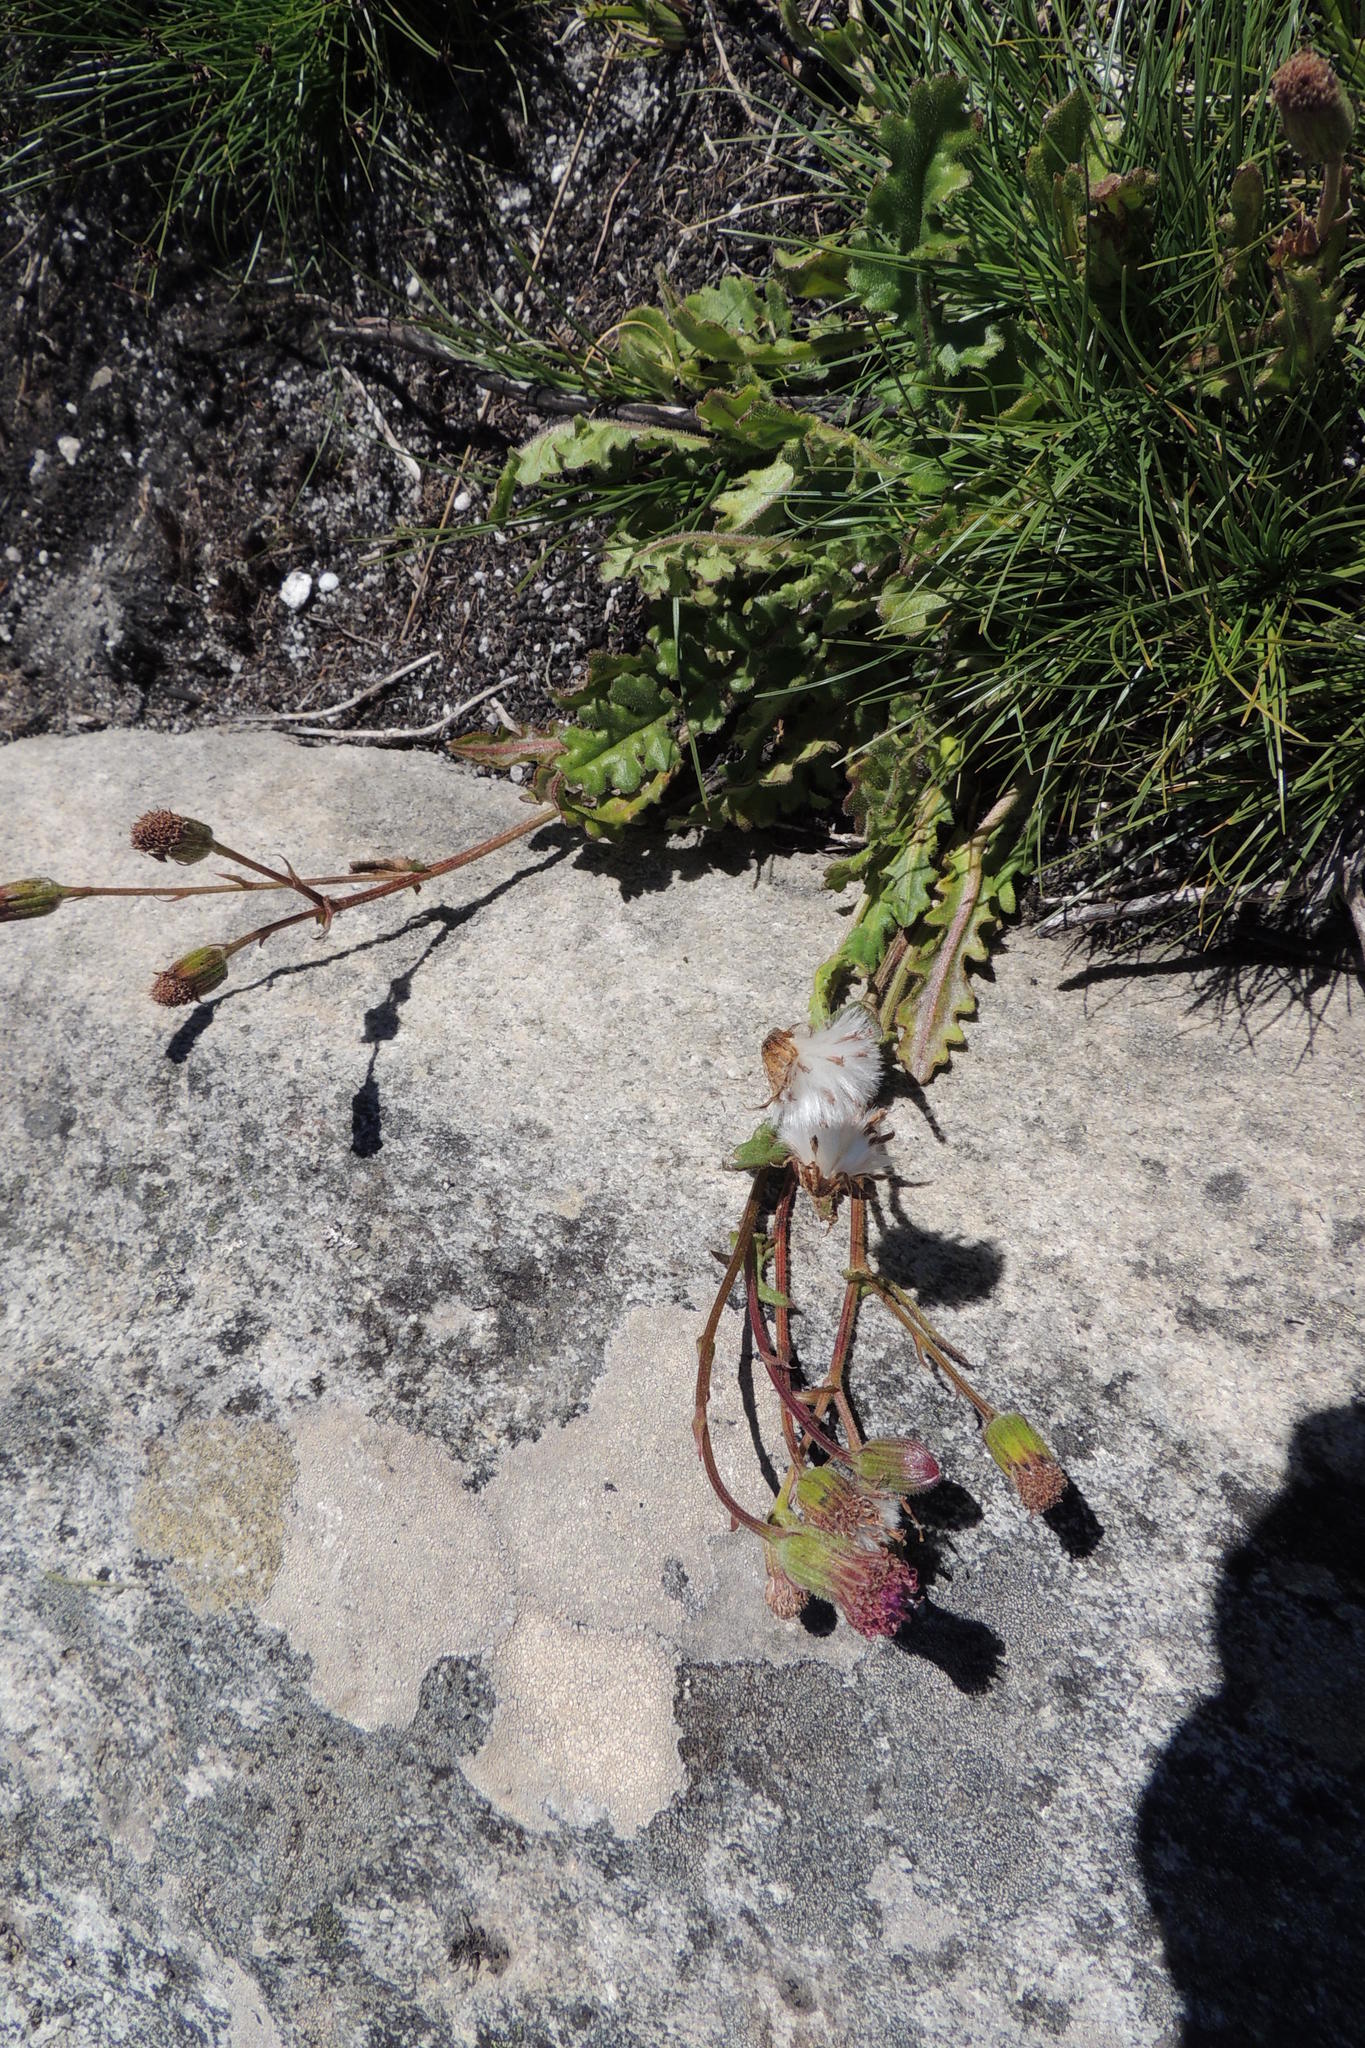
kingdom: Plantae
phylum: Tracheophyta
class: Magnoliopsida
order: Asterales
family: Asteraceae
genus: Senecio
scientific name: Senecio purpureus
